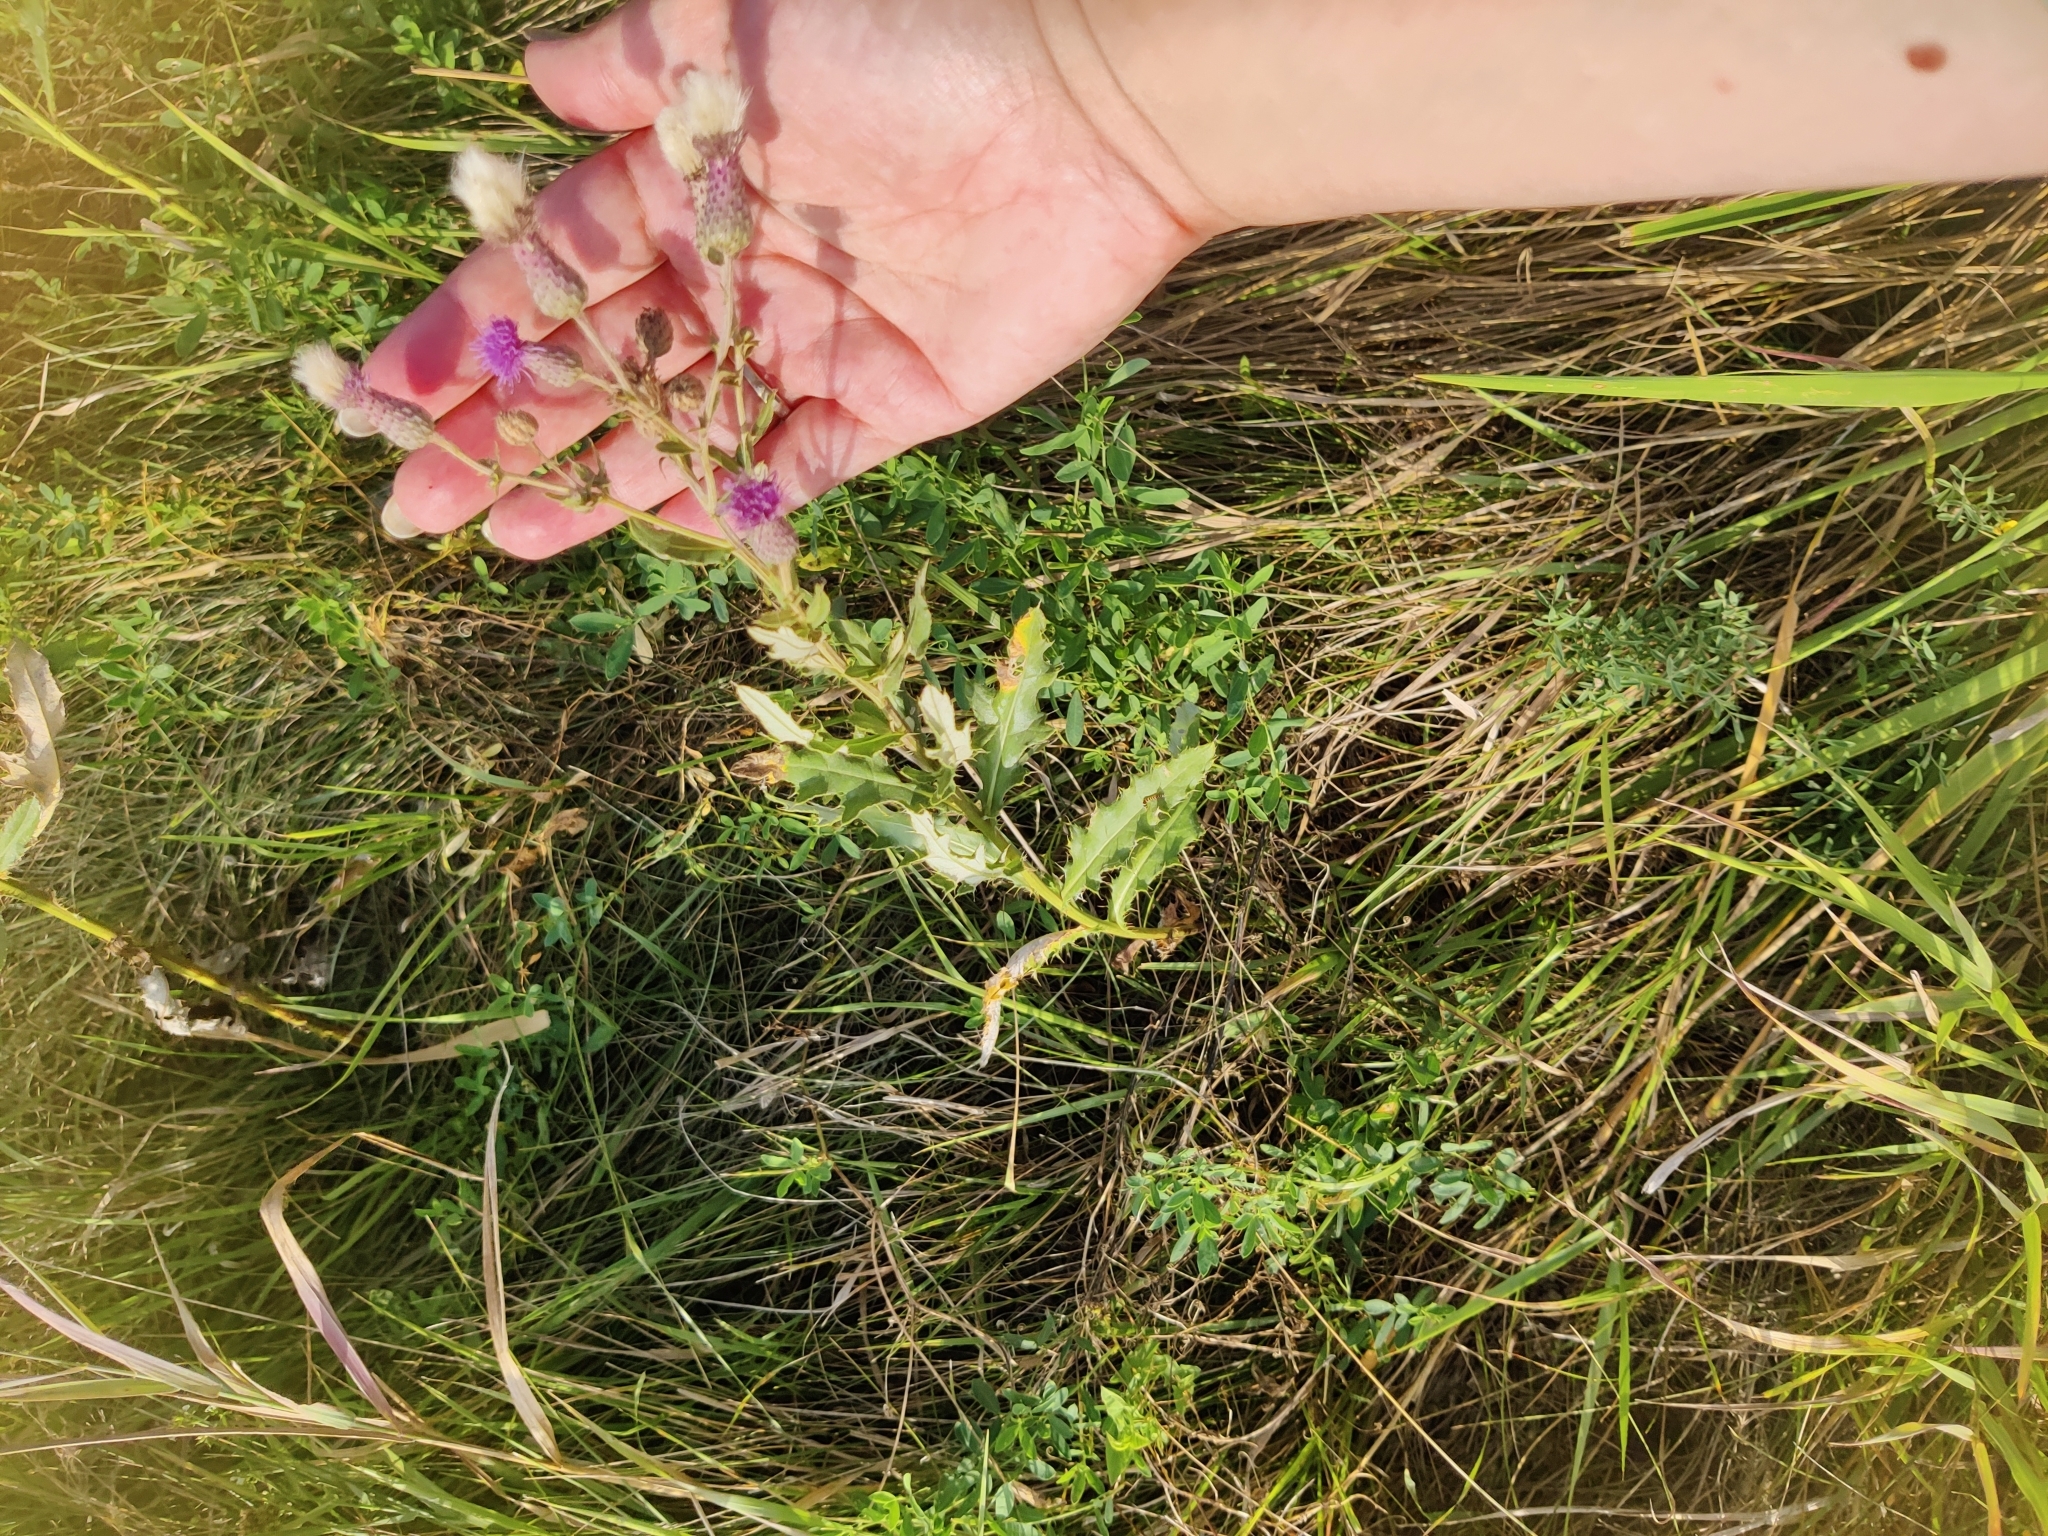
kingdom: Plantae
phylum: Tracheophyta
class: Magnoliopsida
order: Asterales
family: Asteraceae
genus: Cirsium
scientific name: Cirsium arvense
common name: Creeping thistle
